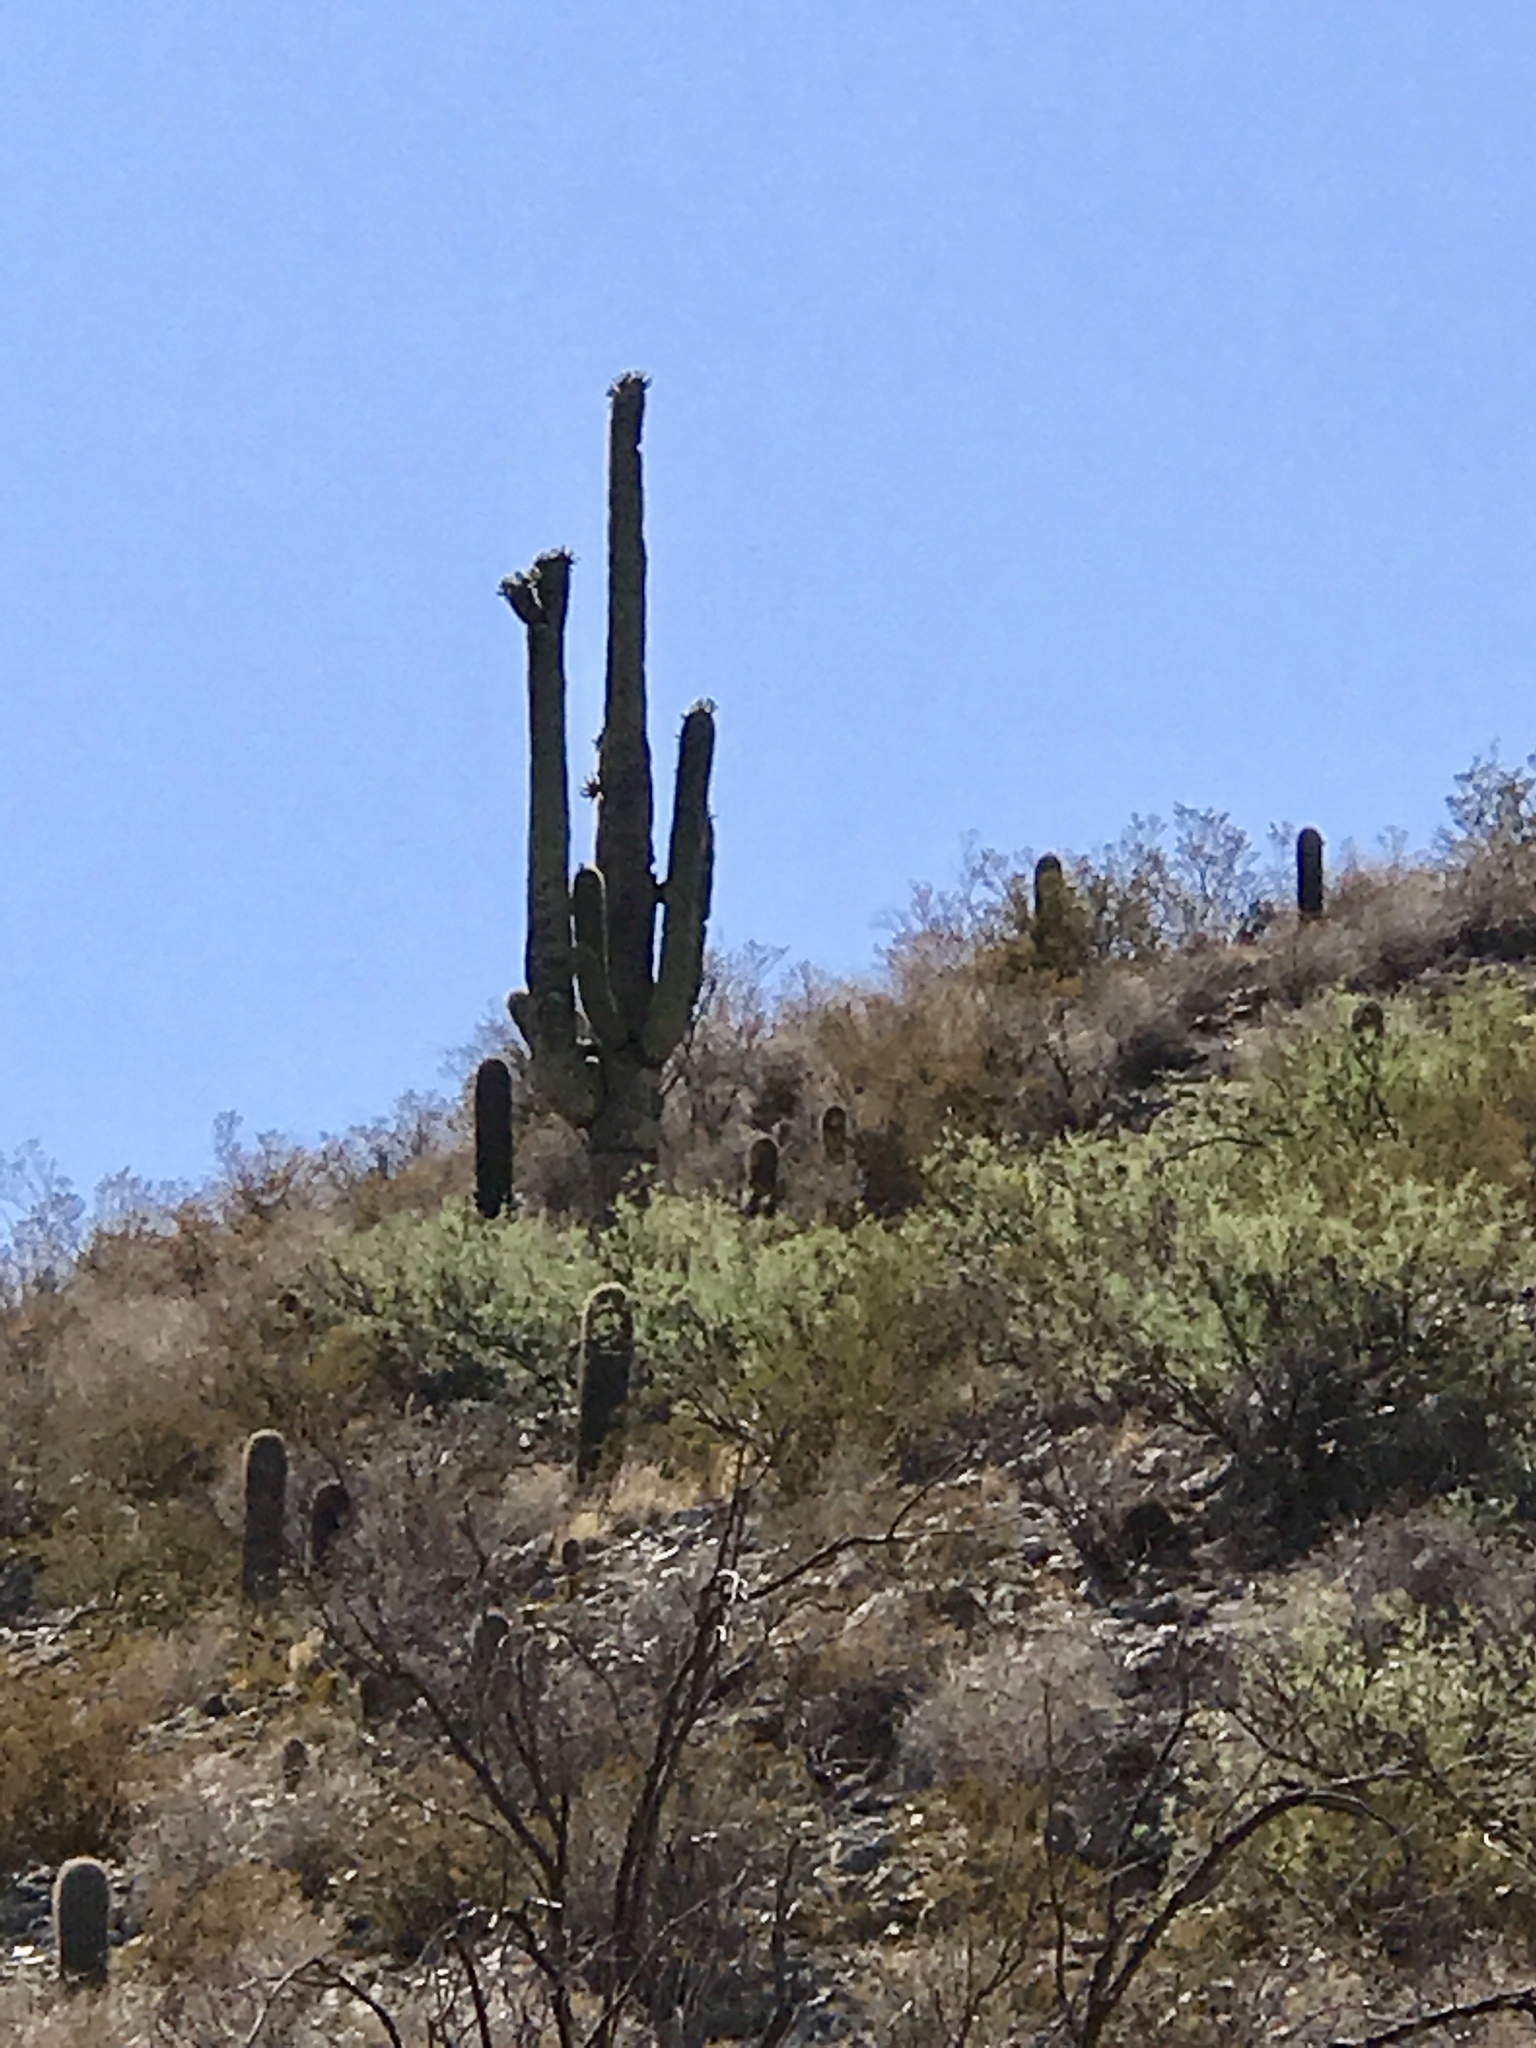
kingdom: Plantae
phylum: Tracheophyta
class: Magnoliopsida
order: Caryophyllales
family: Cactaceae
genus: Carnegiea
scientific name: Carnegiea gigantea
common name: Saguaro
